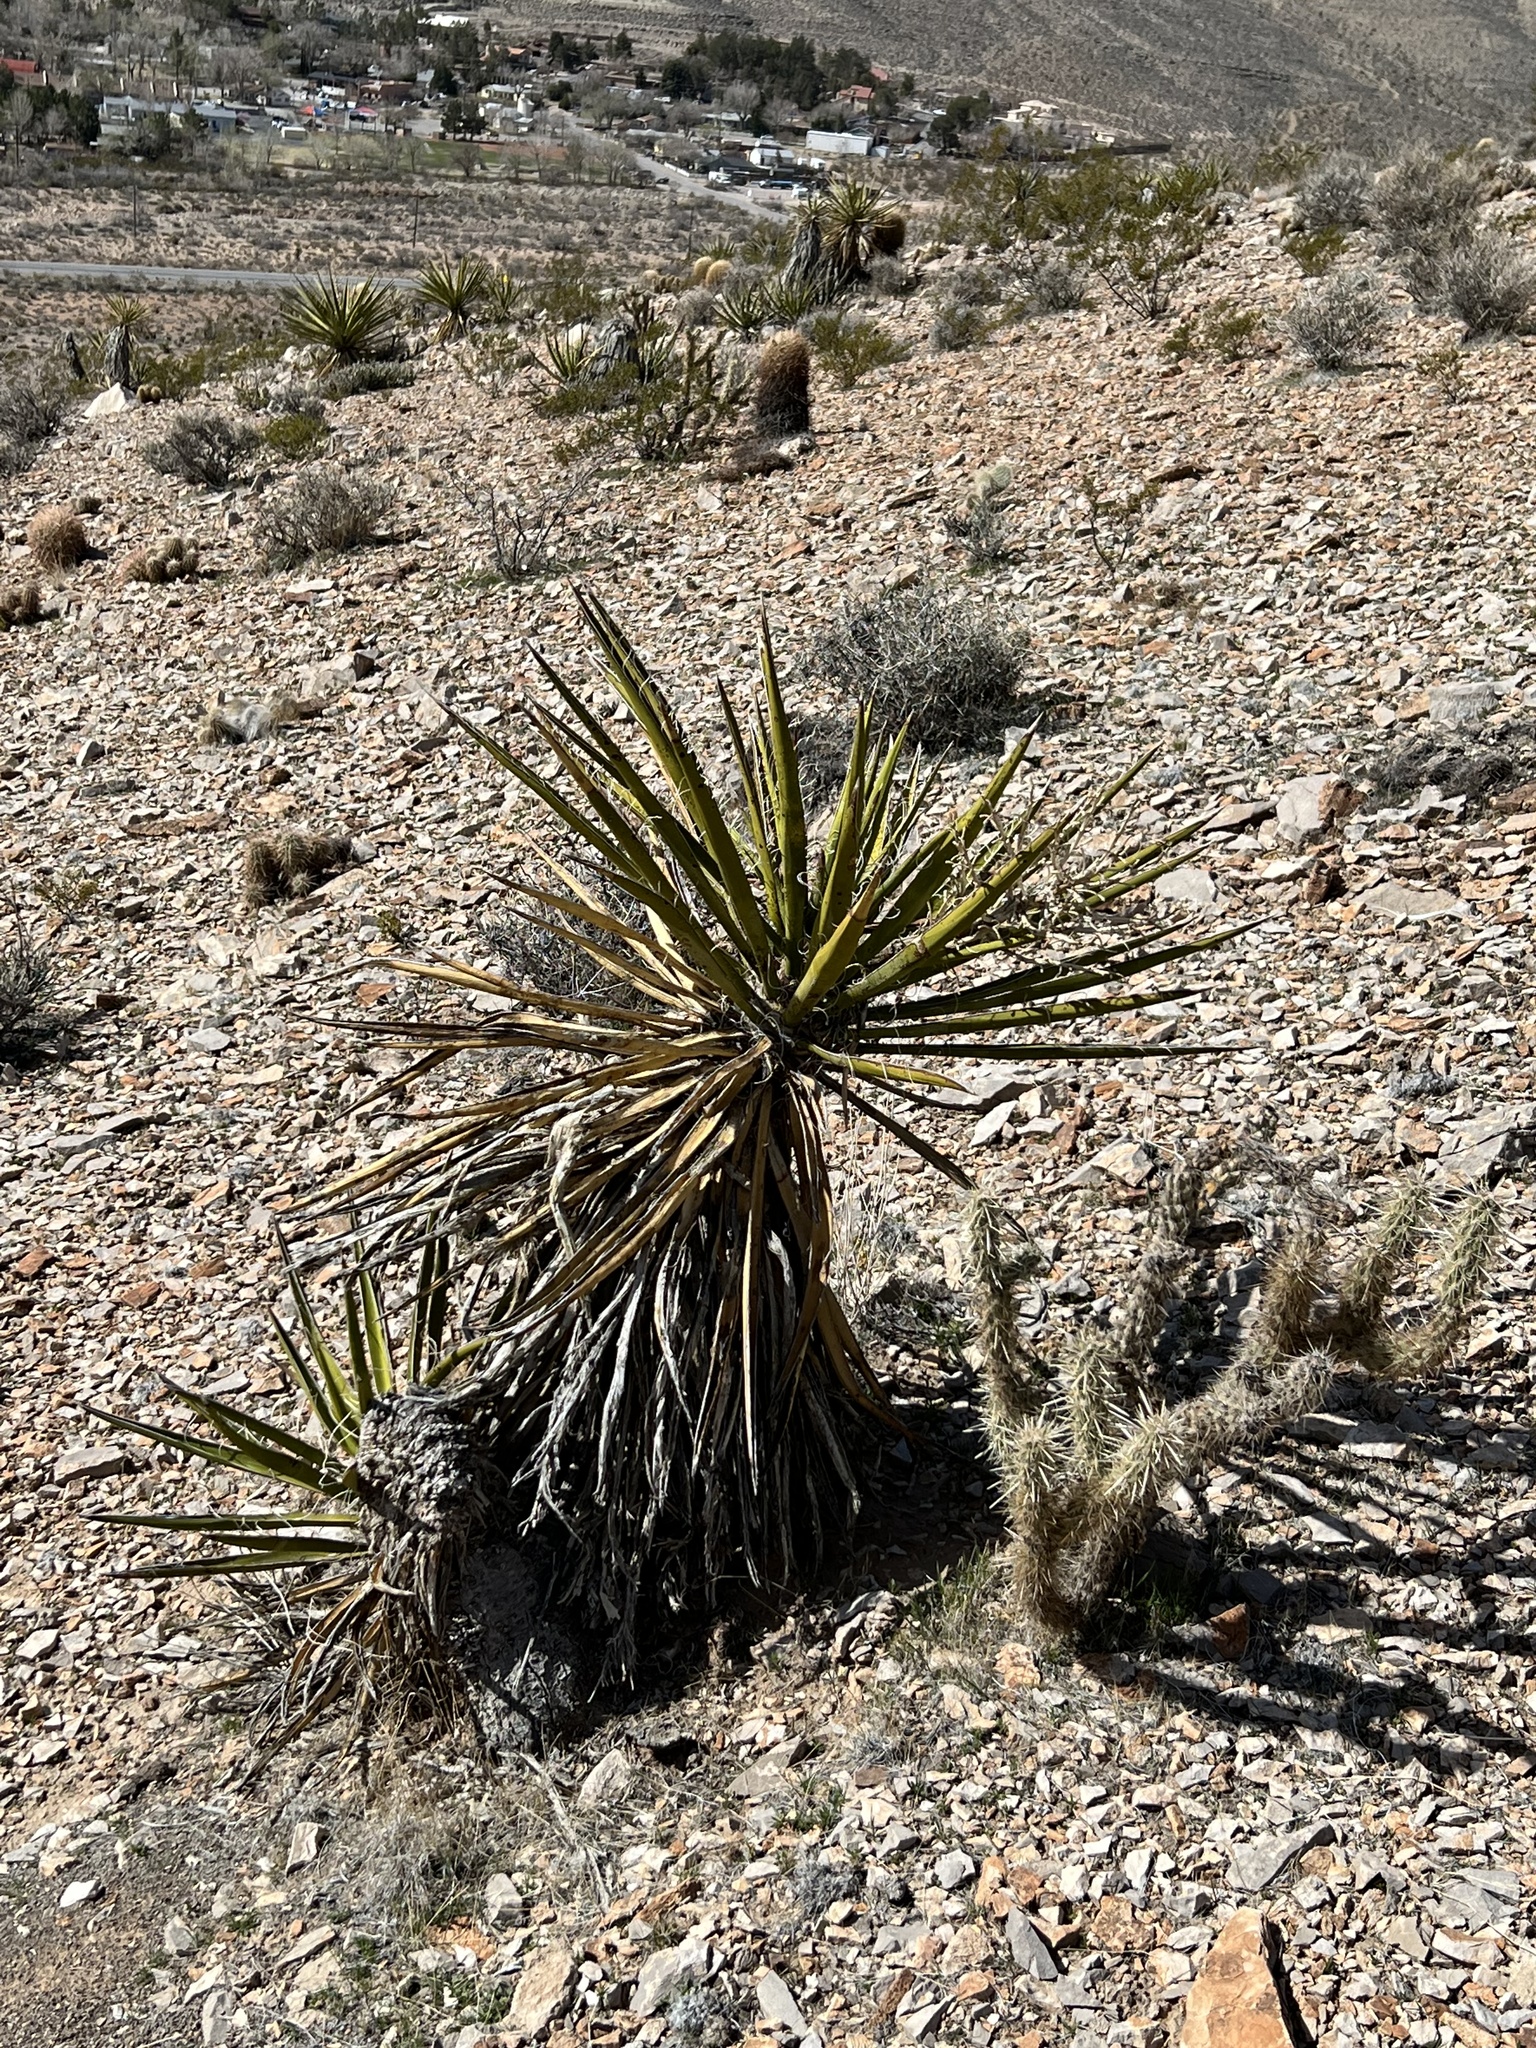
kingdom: Plantae
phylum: Tracheophyta
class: Liliopsida
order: Asparagales
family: Asparagaceae
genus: Yucca
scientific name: Yucca schidigera
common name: Mojave yucca
